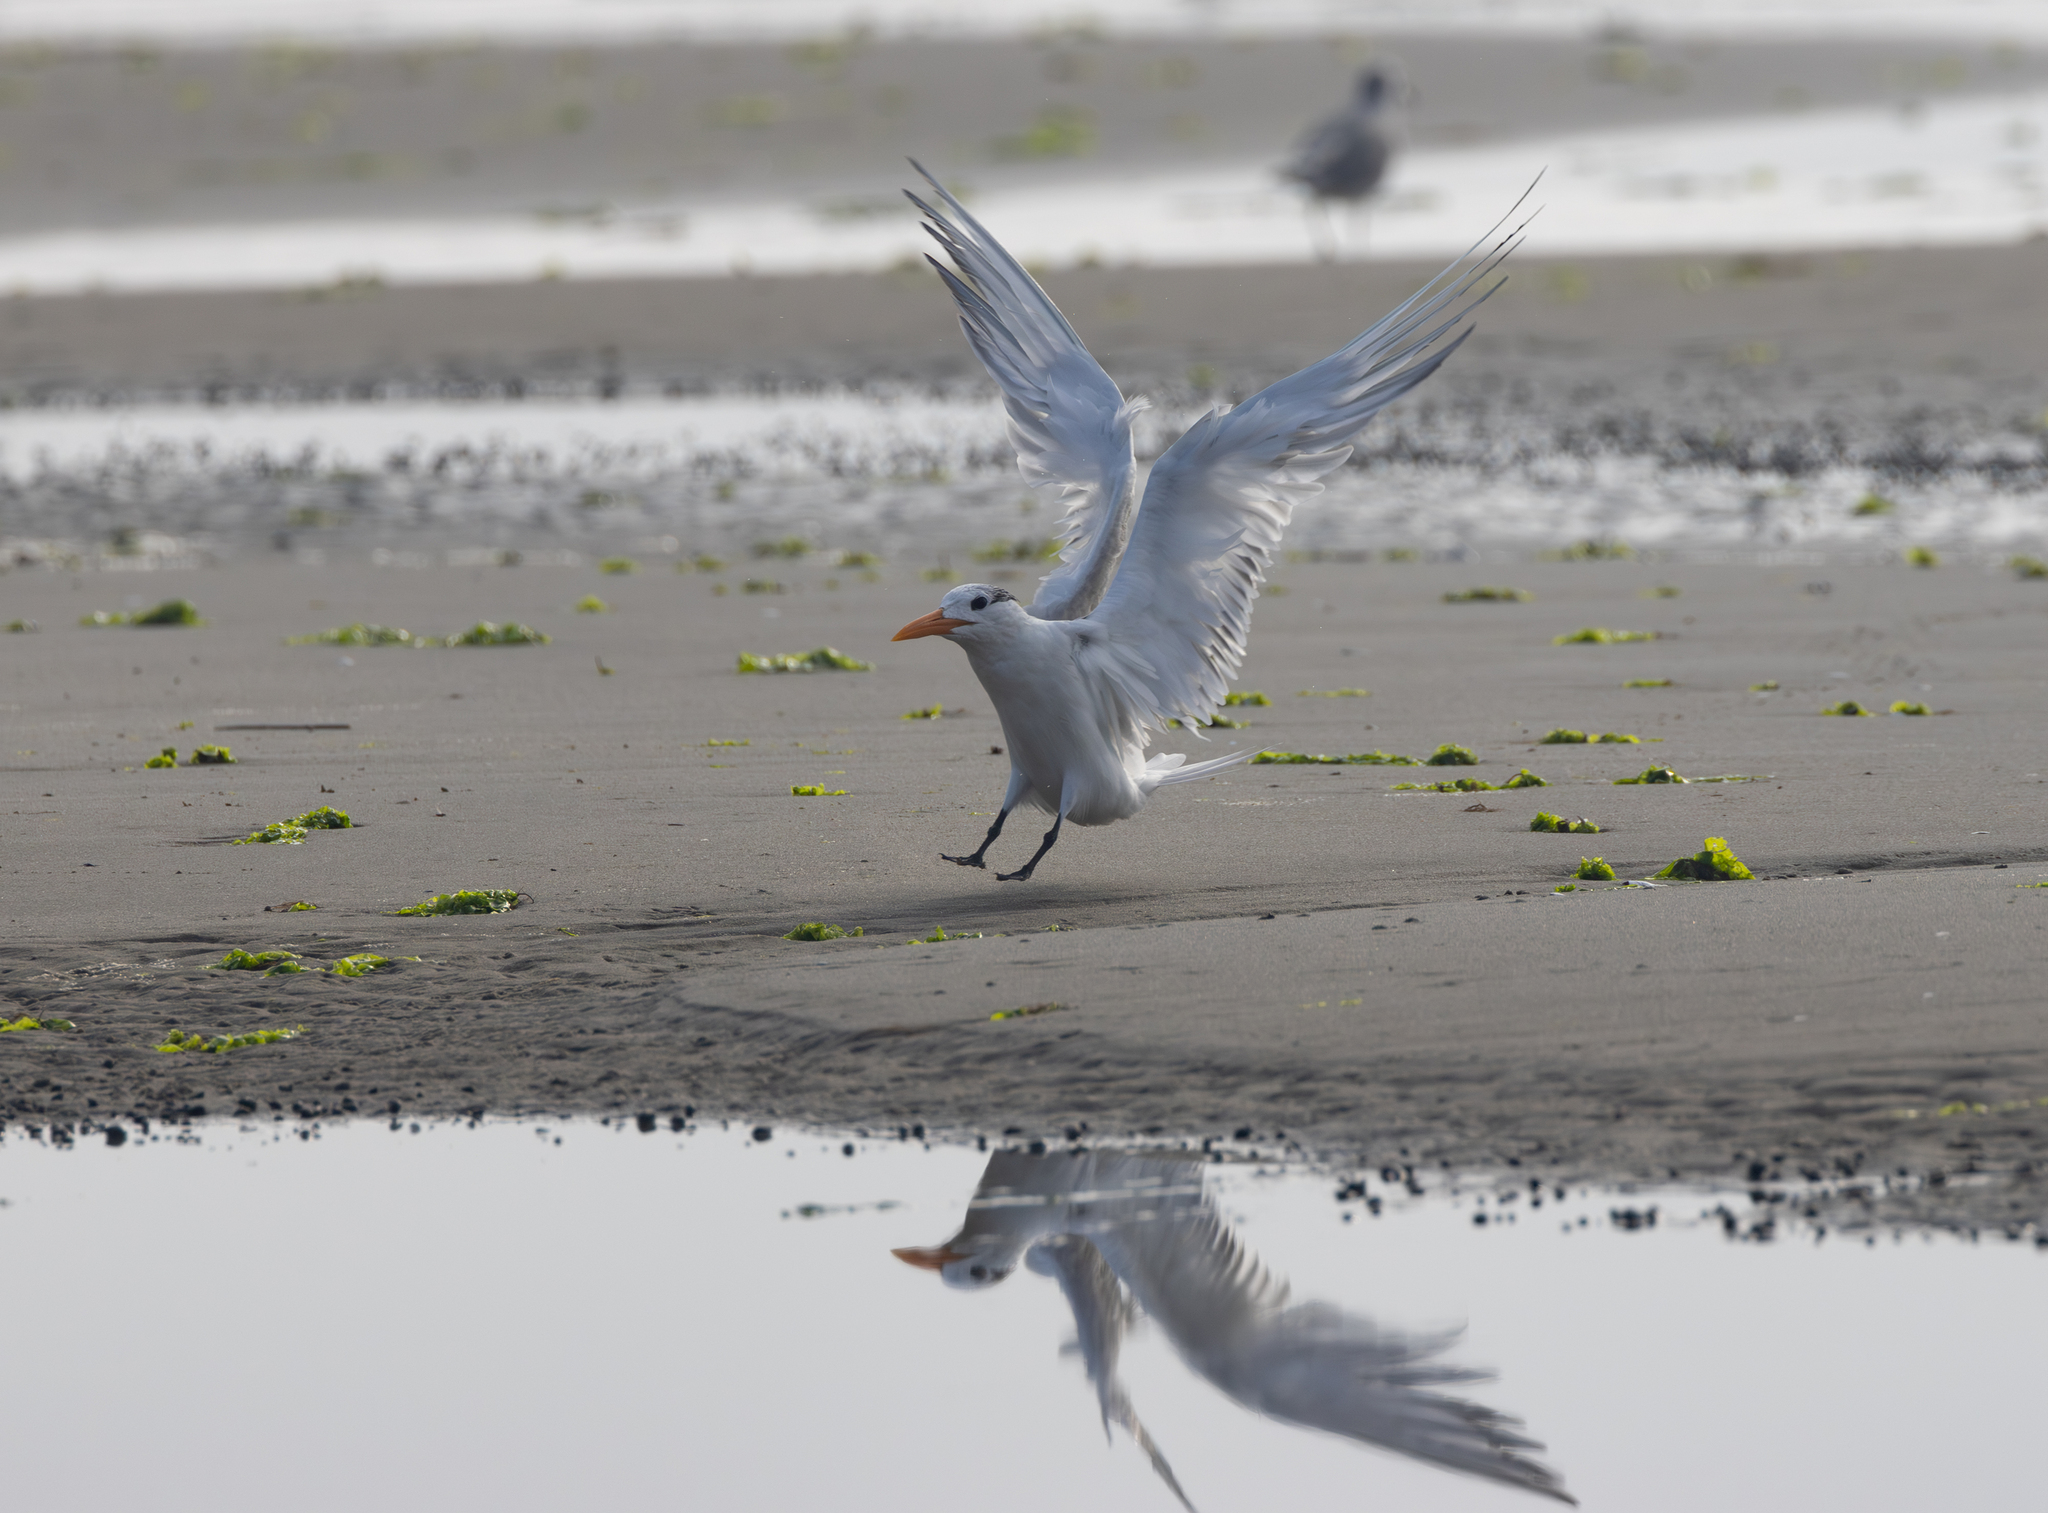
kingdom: Animalia
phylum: Chordata
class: Aves
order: Charadriiformes
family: Laridae
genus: Thalasseus
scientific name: Thalasseus maximus
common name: Royal tern
